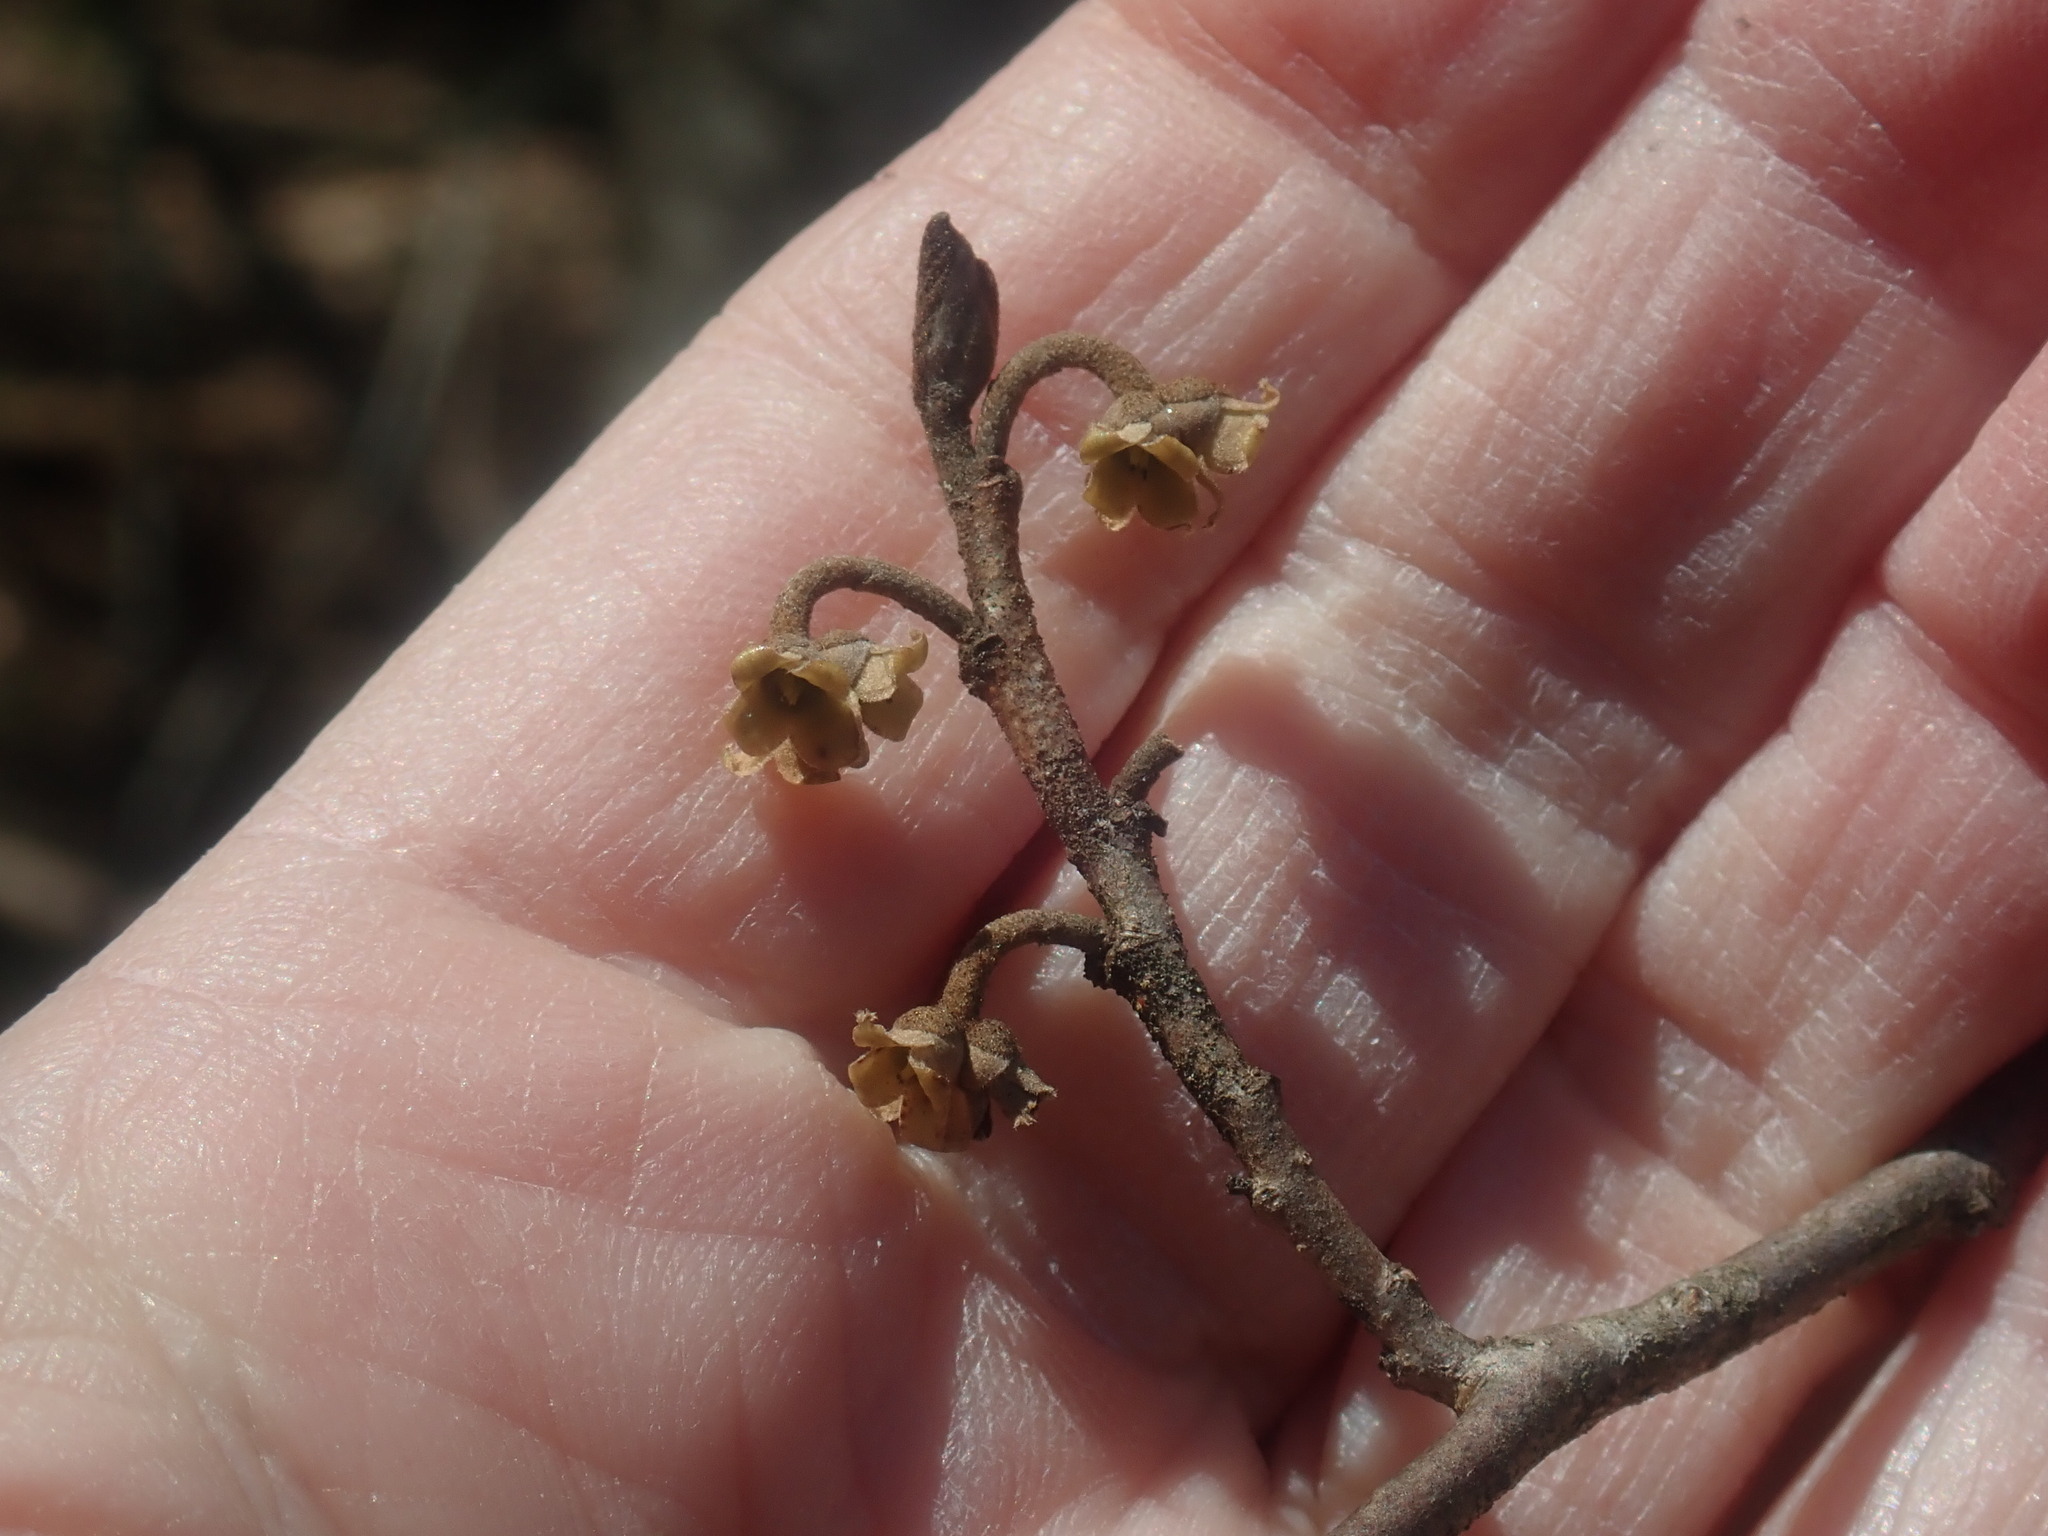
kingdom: Plantae
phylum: Tracheophyta
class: Magnoliopsida
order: Saxifragales
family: Hamamelidaceae
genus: Hamamelis
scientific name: Hamamelis virginiana
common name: Witch-hazel
